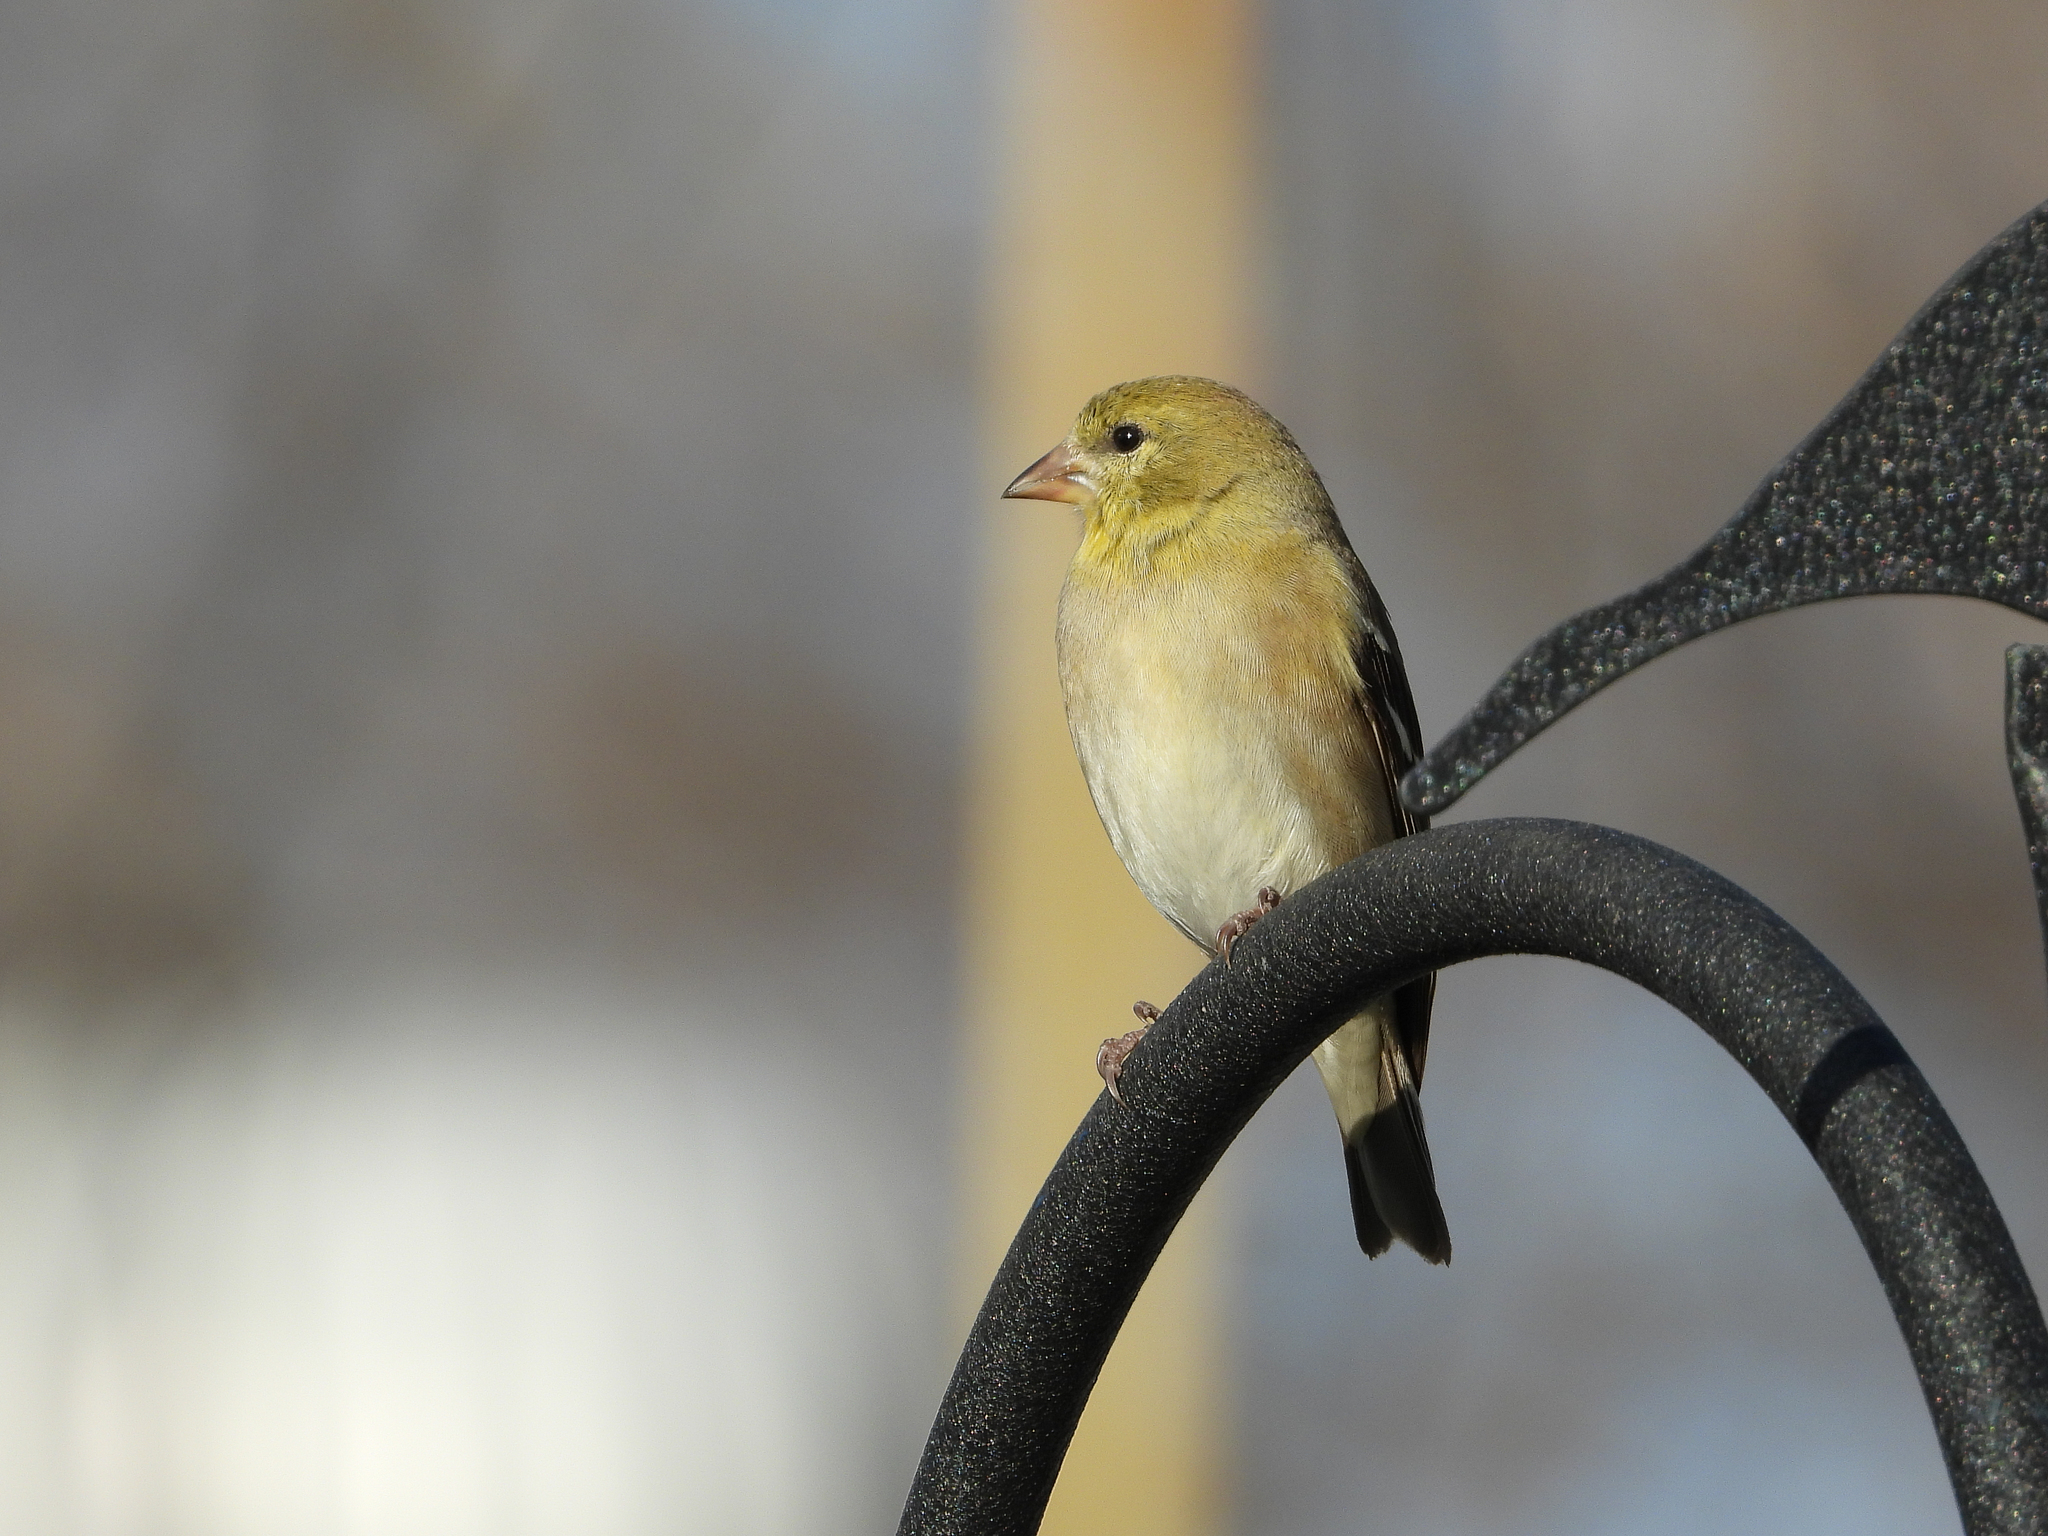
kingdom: Animalia
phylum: Chordata
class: Aves
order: Passeriformes
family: Fringillidae
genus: Spinus
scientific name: Spinus tristis
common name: American goldfinch
